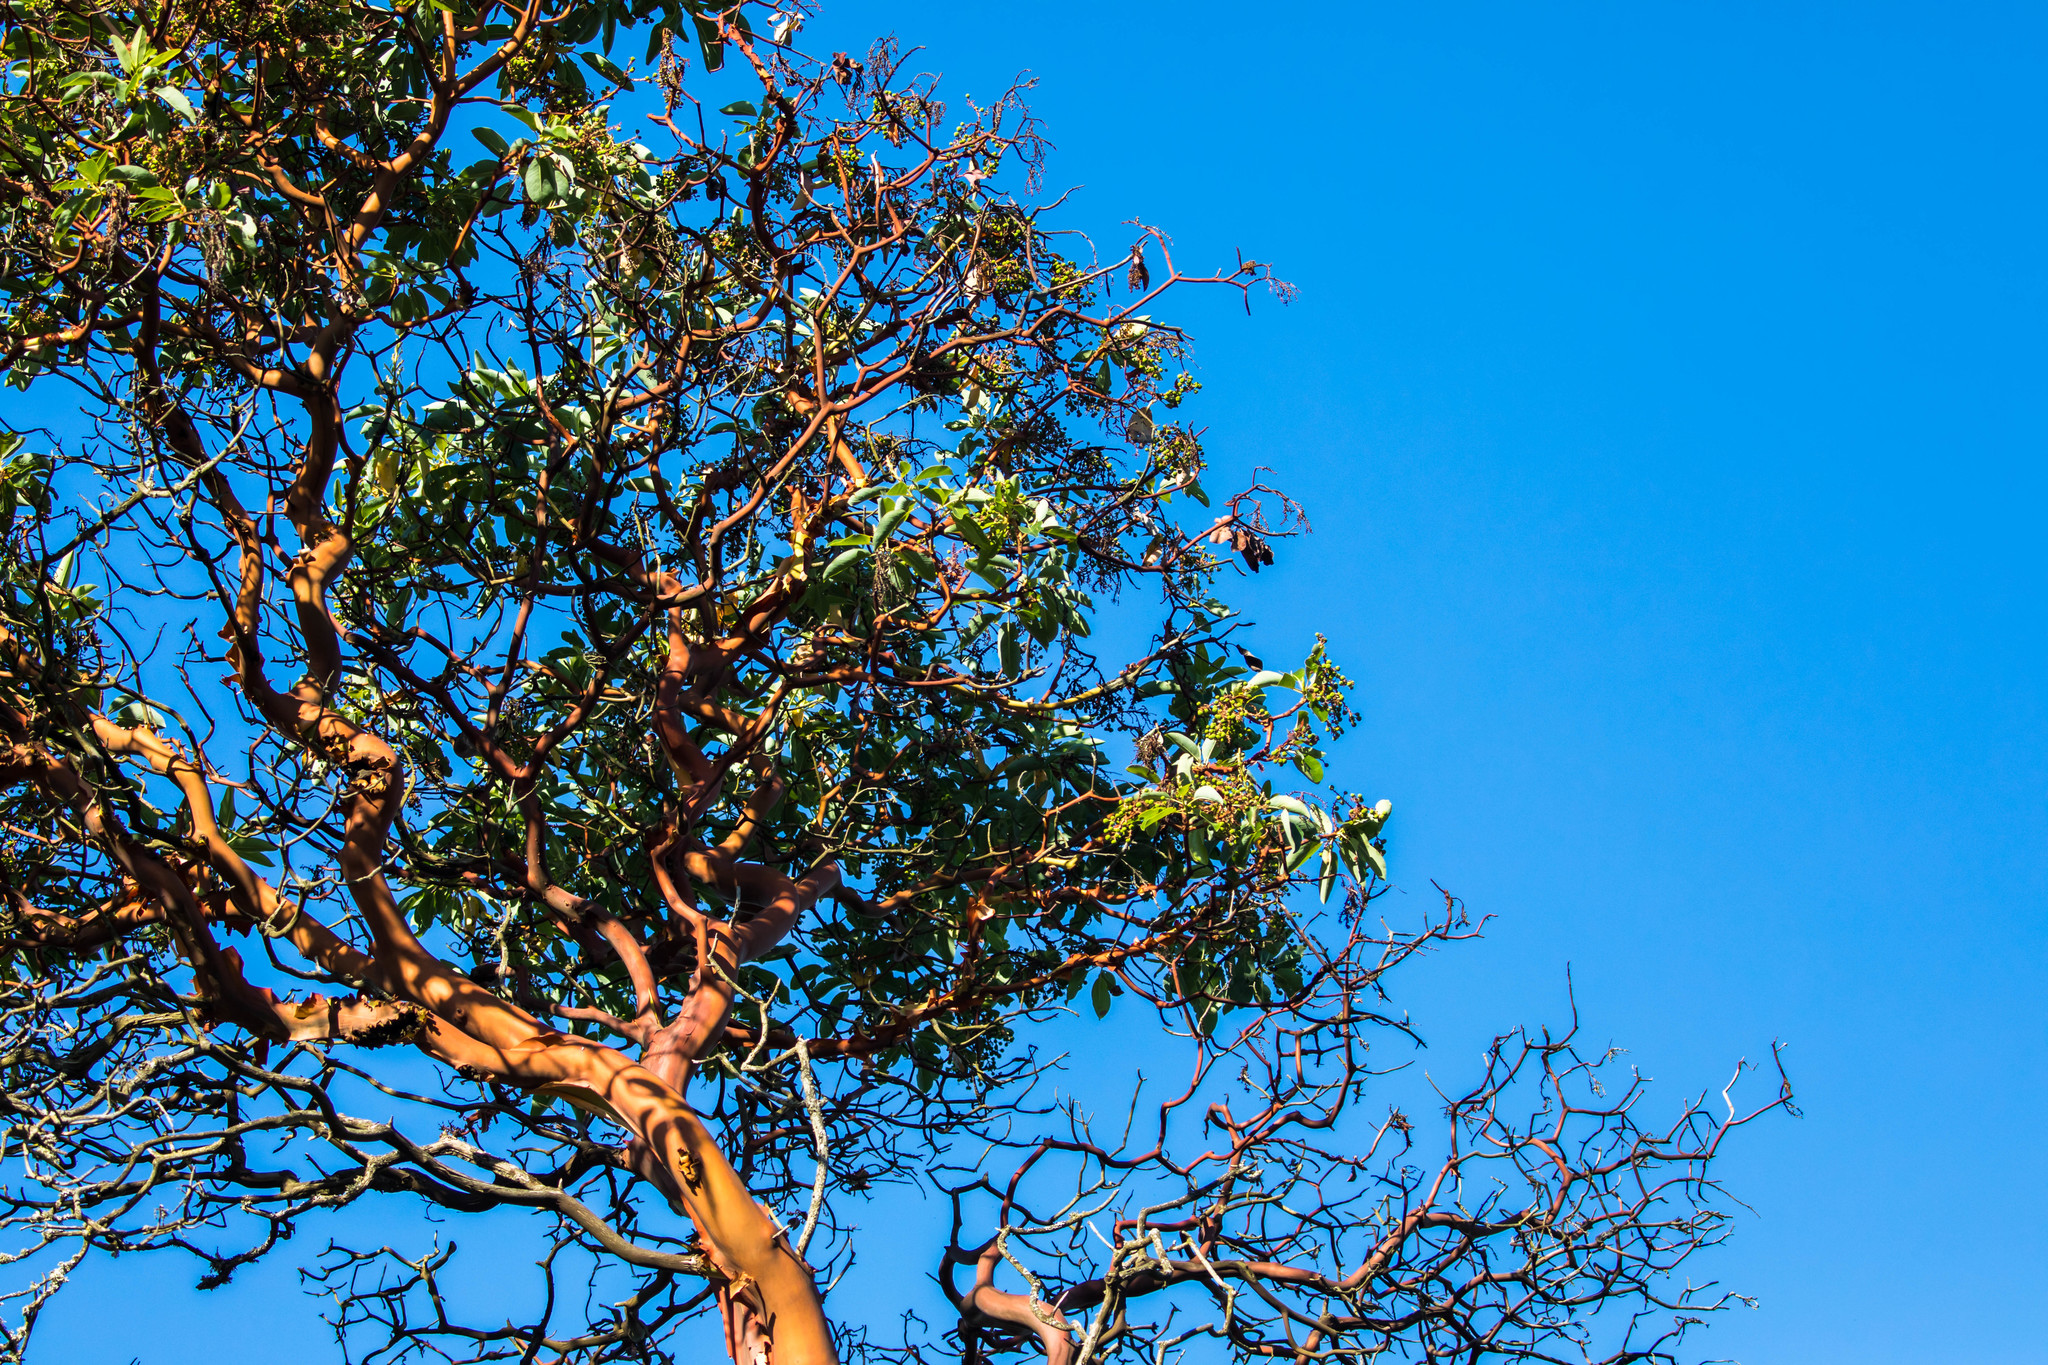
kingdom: Plantae
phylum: Tracheophyta
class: Magnoliopsida
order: Ericales
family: Ericaceae
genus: Arbutus
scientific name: Arbutus menziesii
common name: Pacific madrone
